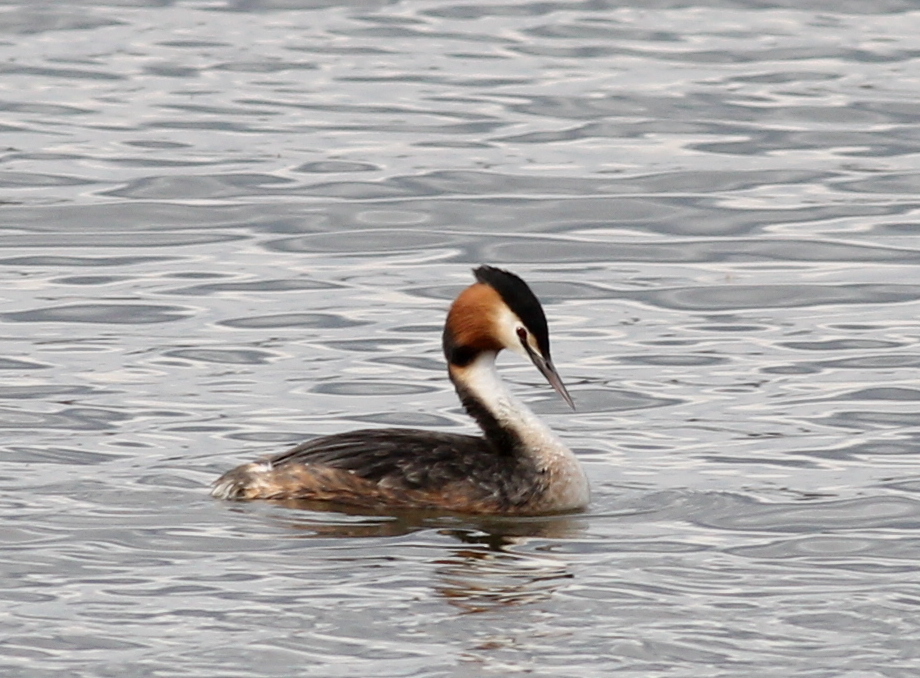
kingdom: Animalia
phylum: Chordata
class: Aves
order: Podicipediformes
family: Podicipedidae
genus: Podiceps
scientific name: Podiceps cristatus
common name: Great crested grebe
